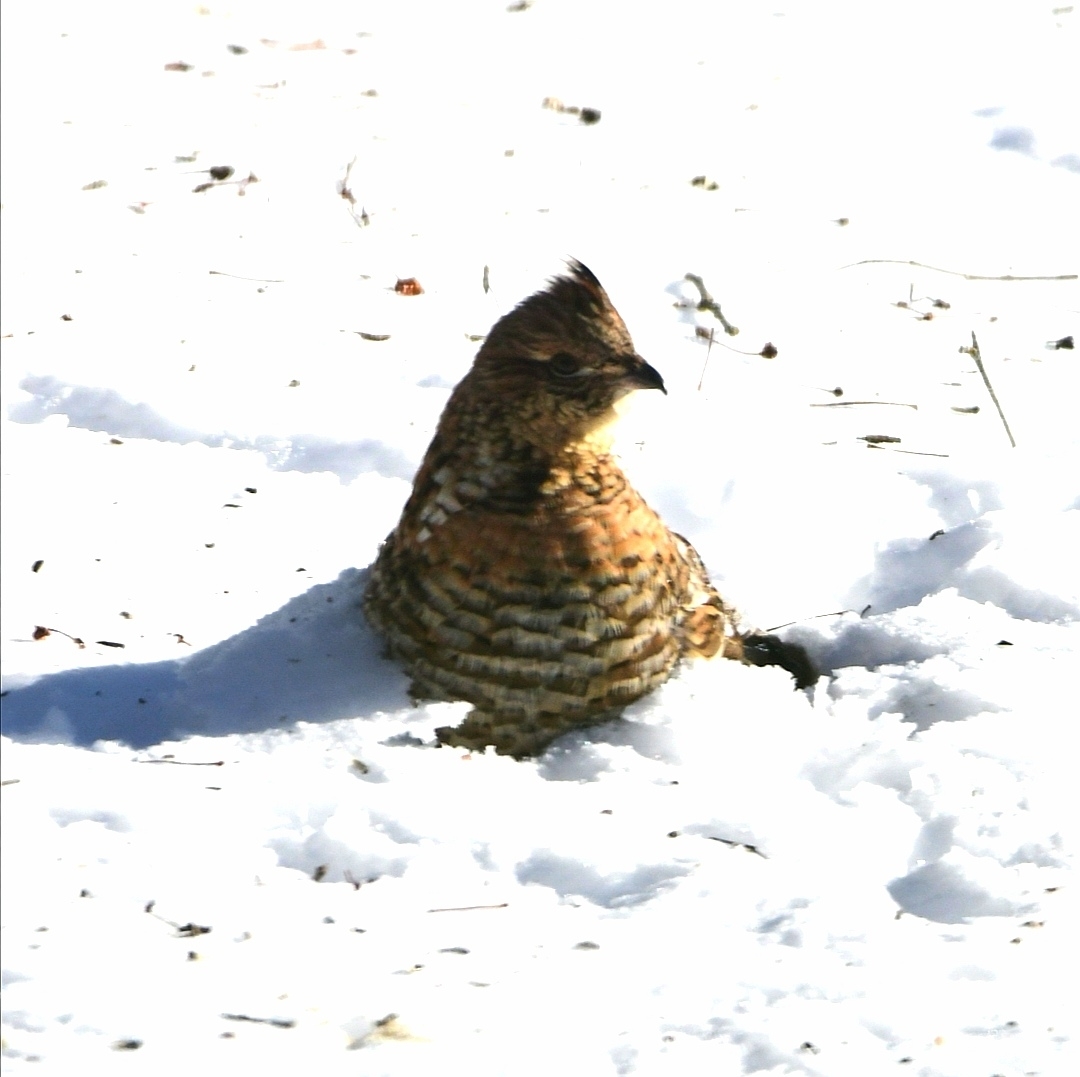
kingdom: Animalia
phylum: Chordata
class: Aves
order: Galliformes
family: Phasianidae
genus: Bonasa
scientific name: Bonasa umbellus
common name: Ruffed grouse
